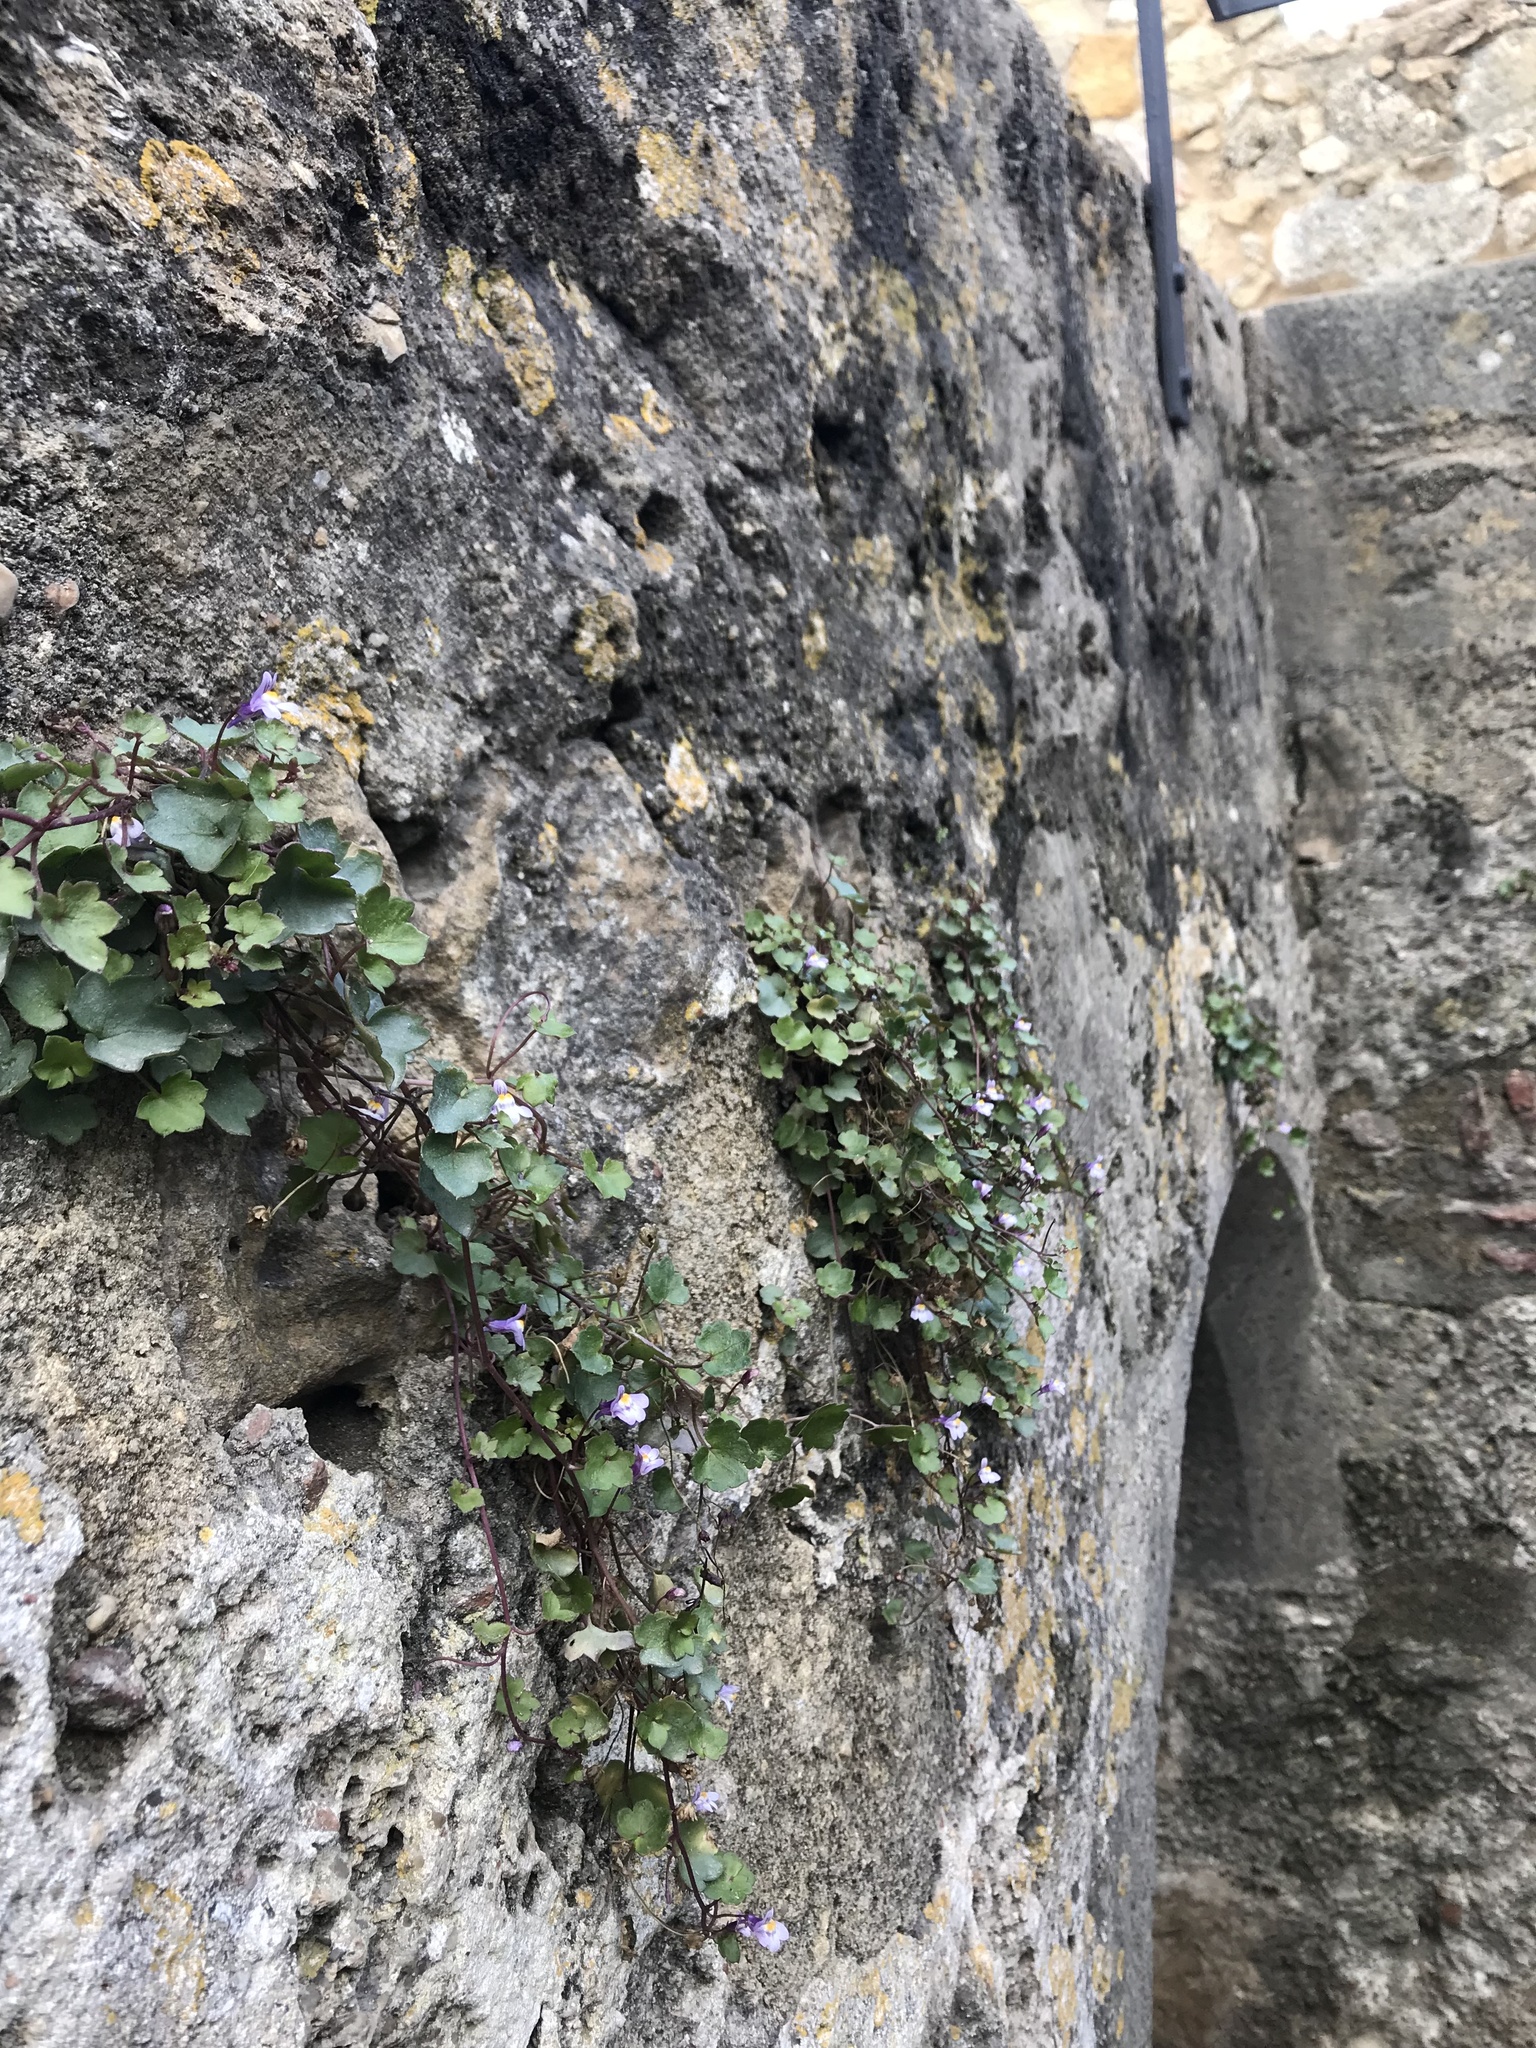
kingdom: Plantae
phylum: Tracheophyta
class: Magnoliopsida
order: Lamiales
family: Plantaginaceae
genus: Cymbalaria
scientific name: Cymbalaria muralis
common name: Ivy-leaved toadflax
